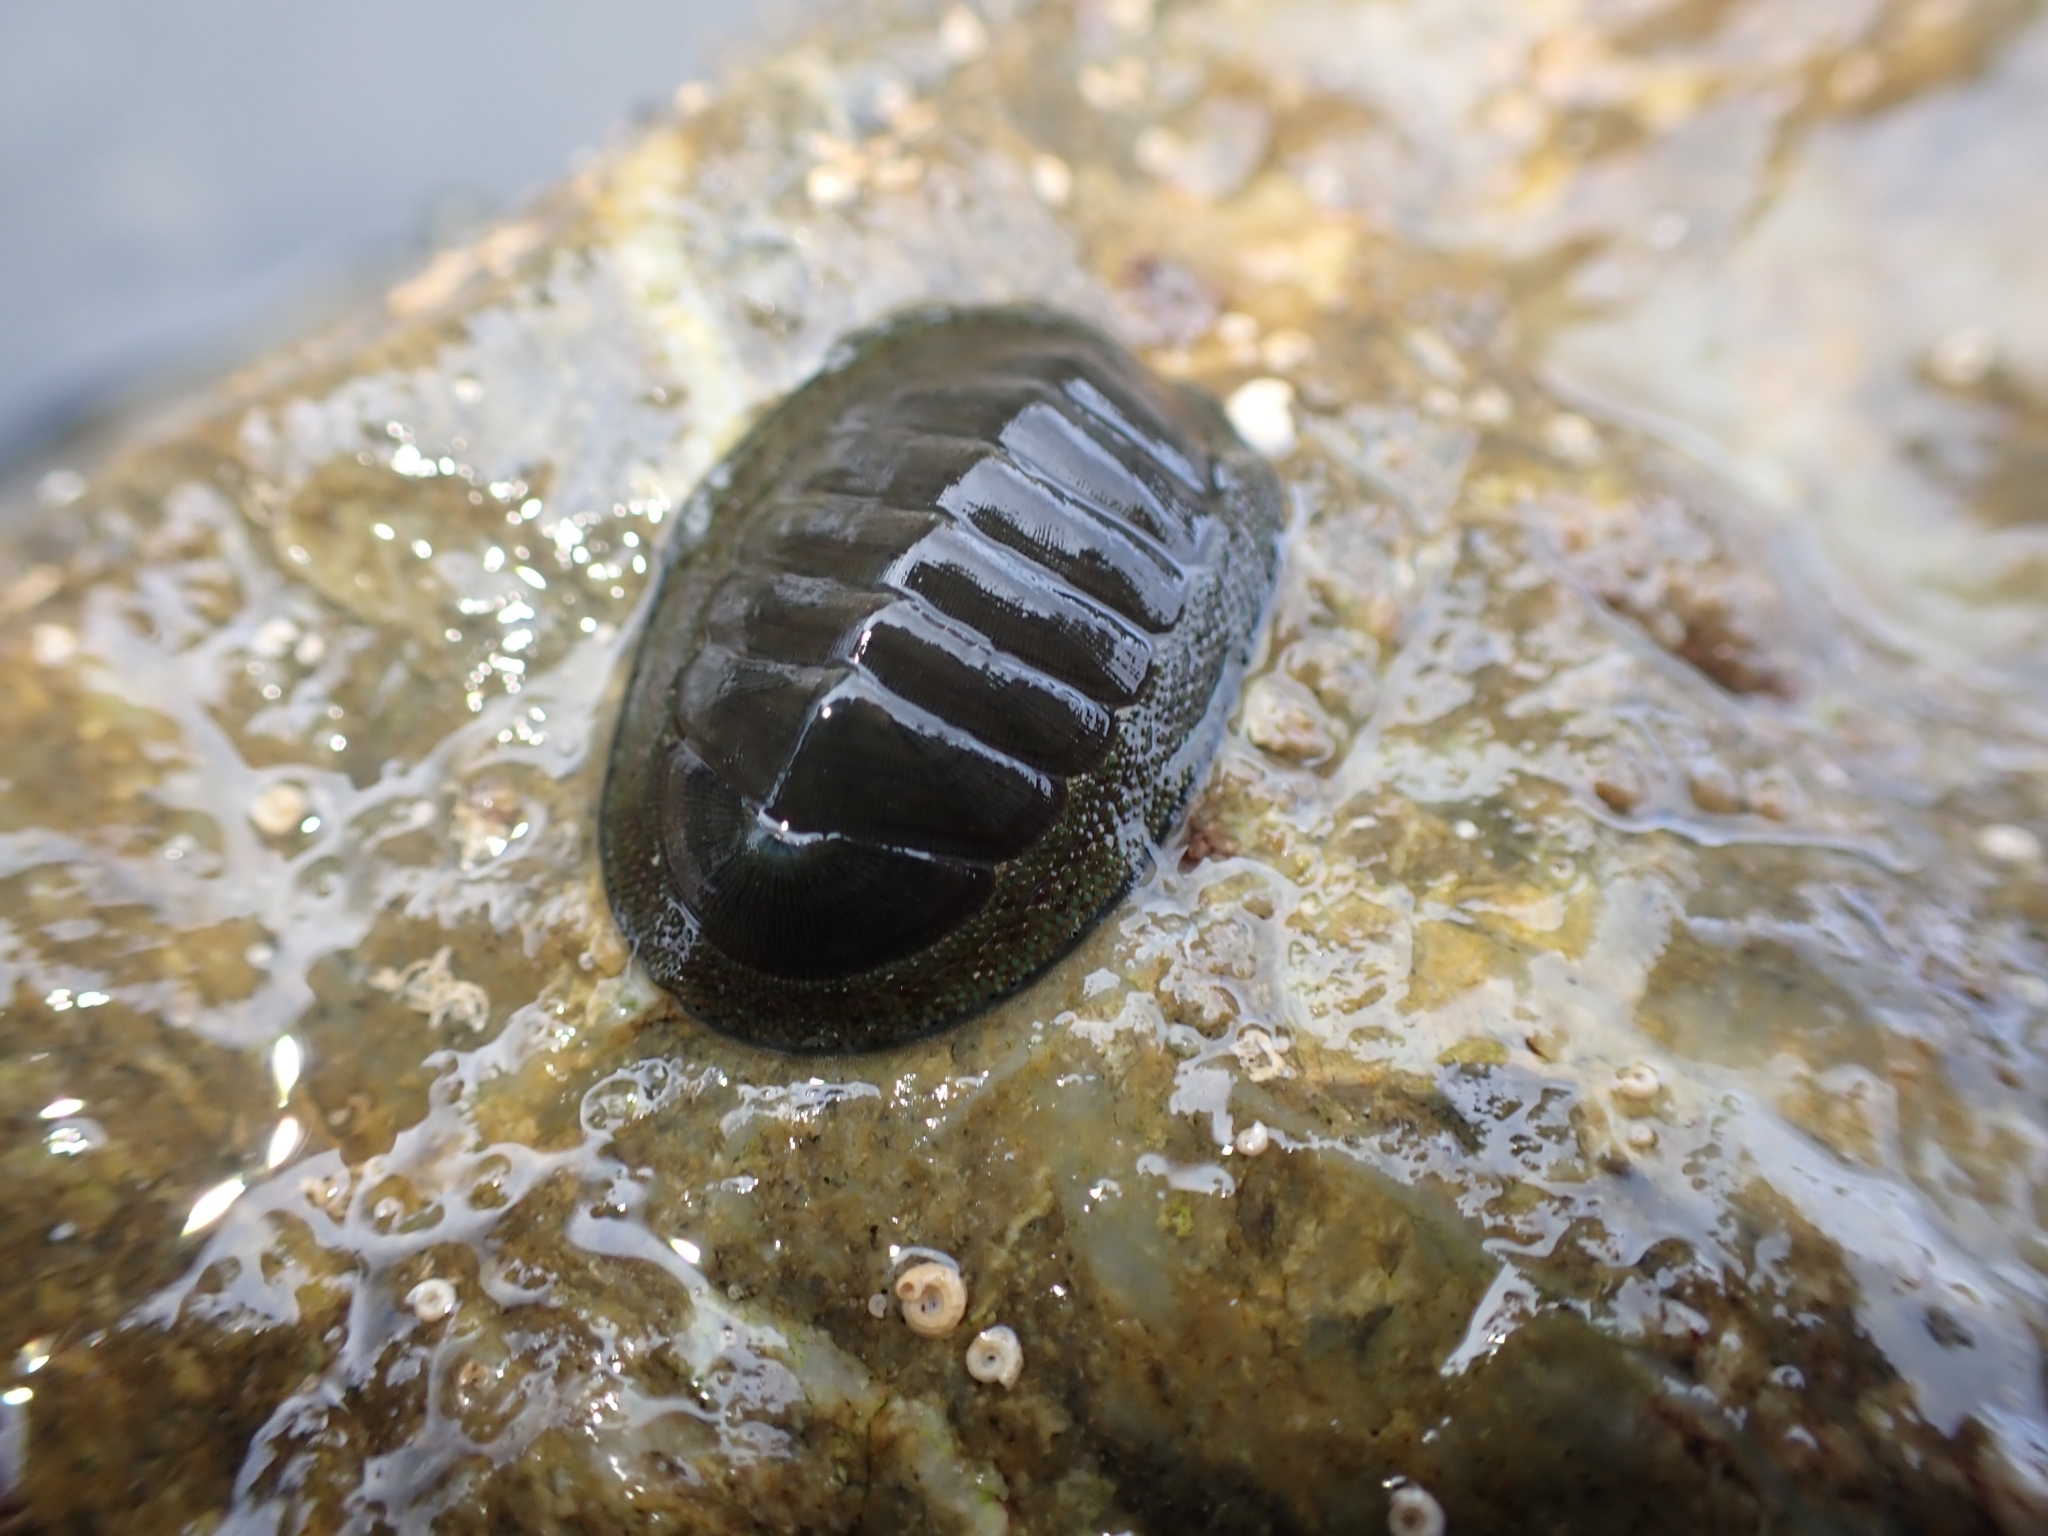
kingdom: Animalia
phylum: Mollusca
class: Polyplacophora
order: Chitonida
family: Chitonidae
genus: Chiton
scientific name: Chiton glaucus
